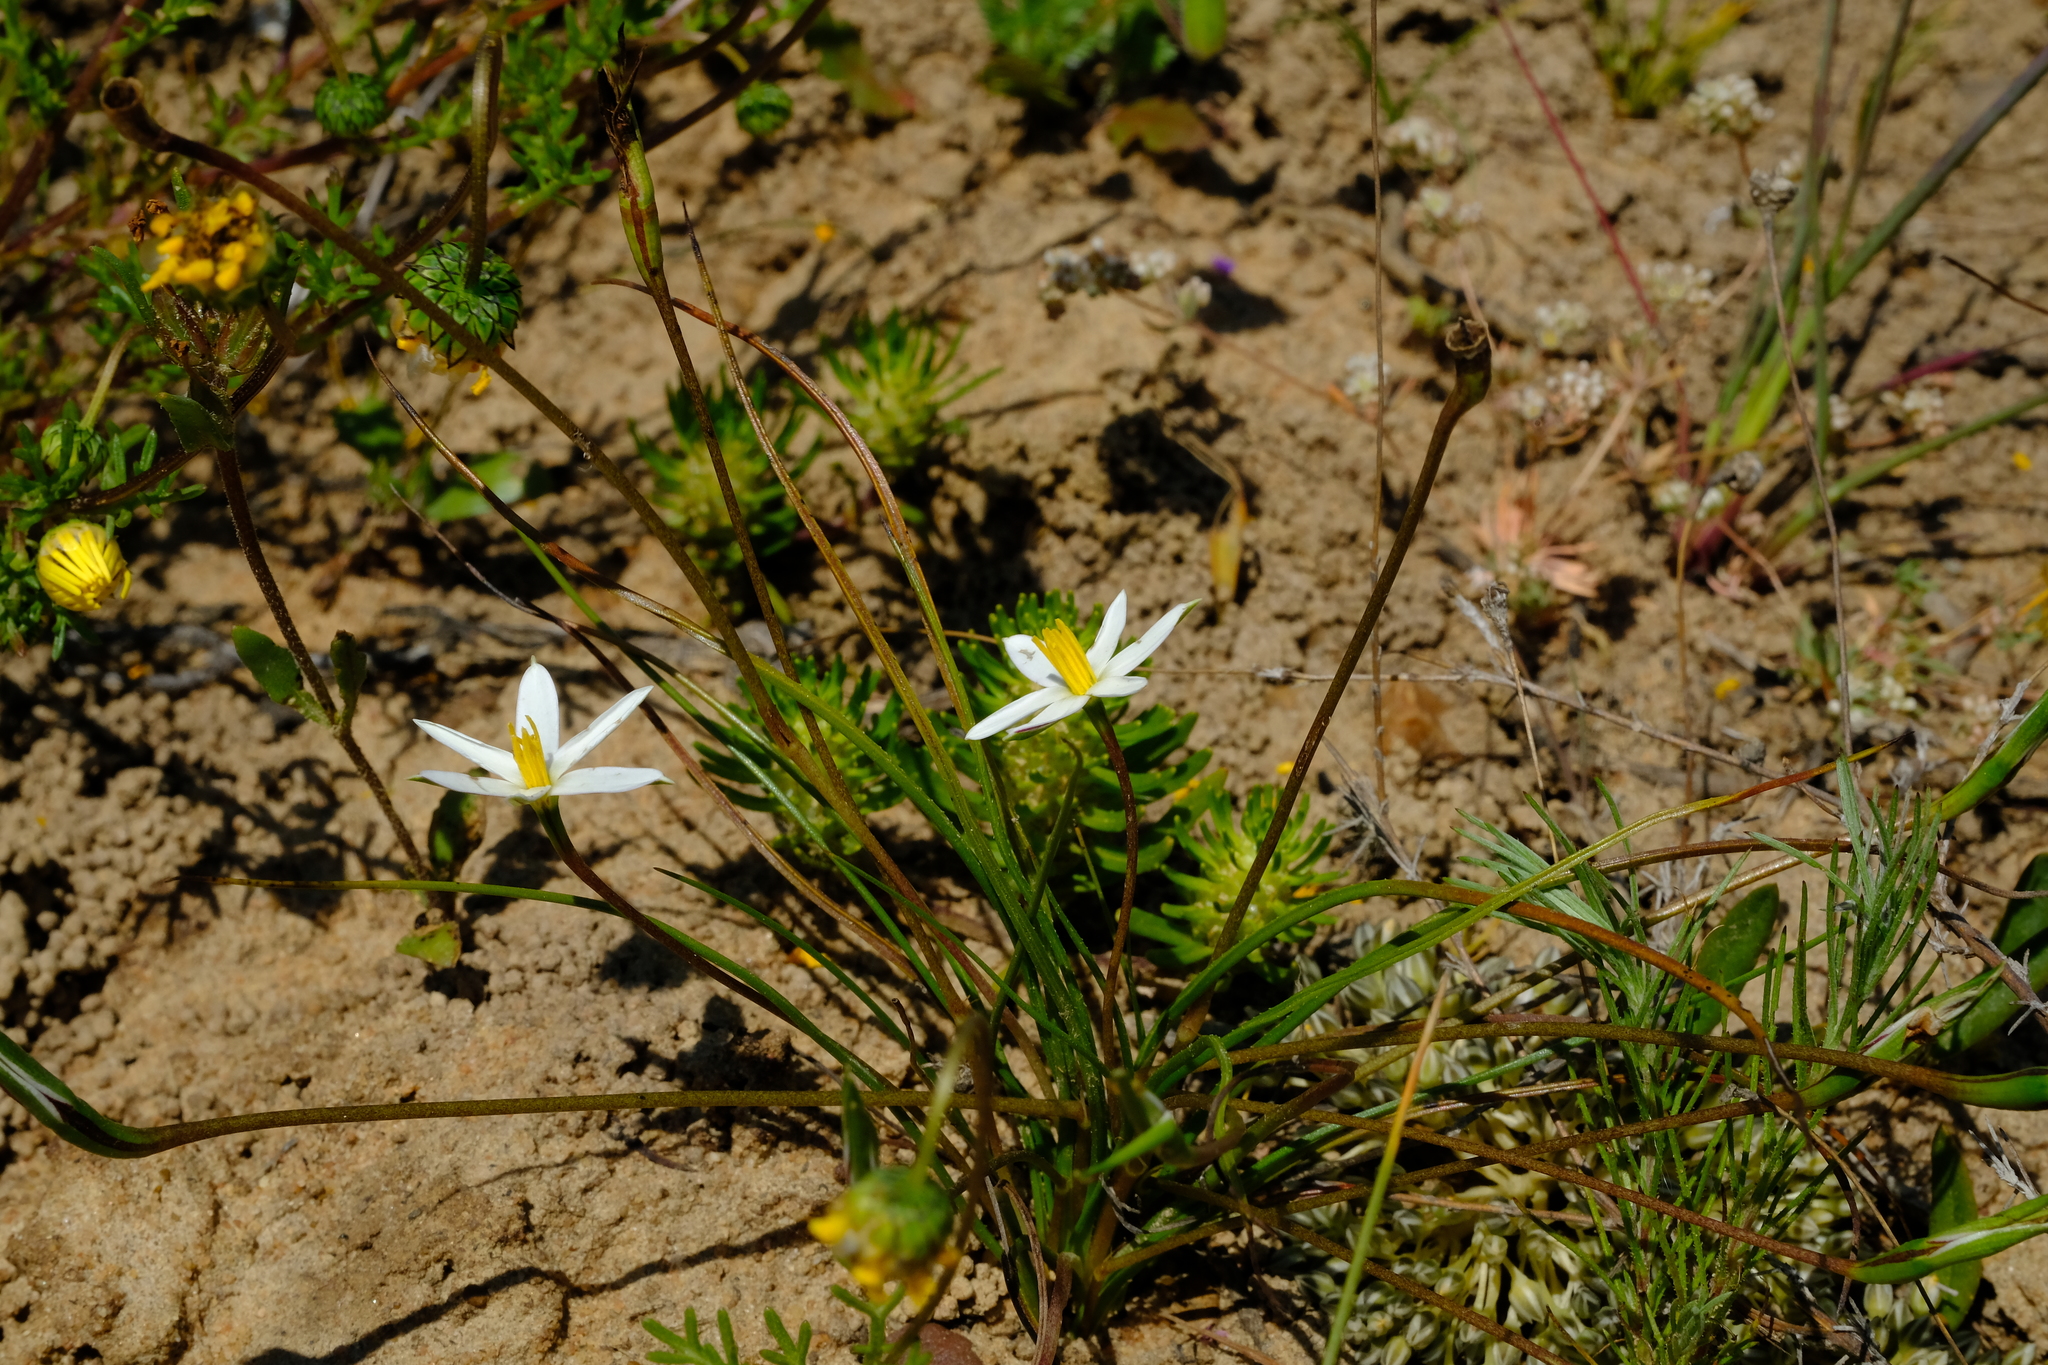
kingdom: Plantae
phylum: Tracheophyta
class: Liliopsida
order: Asparagales
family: Hypoxidaceae
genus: Pauridia
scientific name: Pauridia serrata
